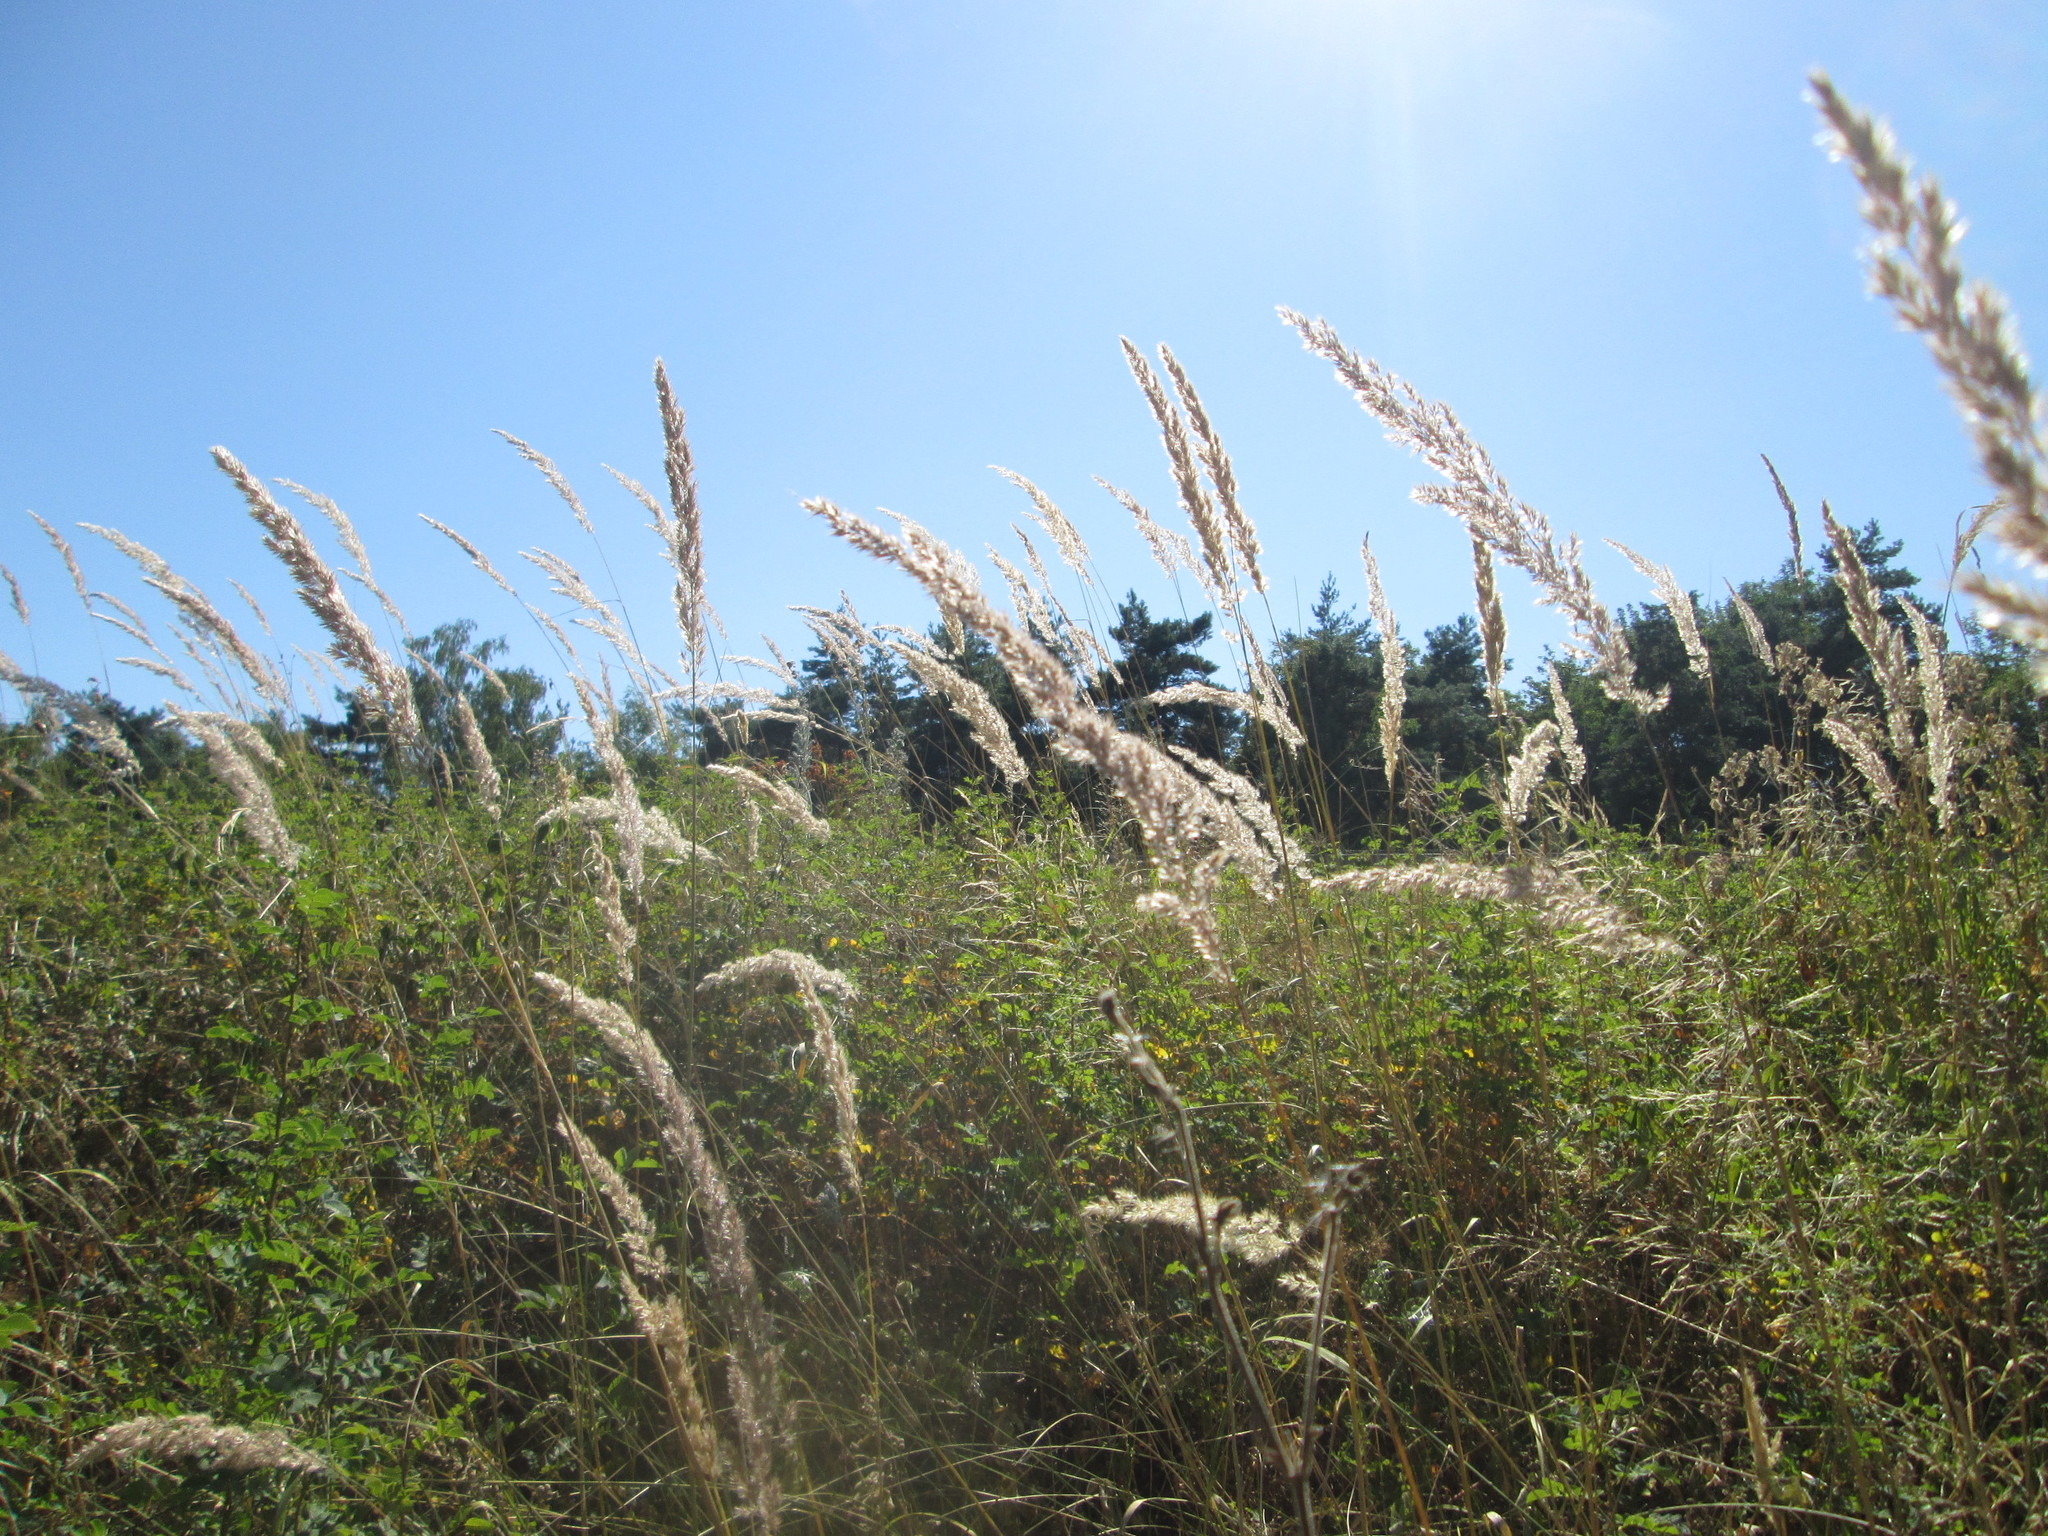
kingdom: Plantae
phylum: Tracheophyta
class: Liliopsida
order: Poales
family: Poaceae
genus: Calamagrostis
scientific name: Calamagrostis epigejos
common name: Wood small-reed
